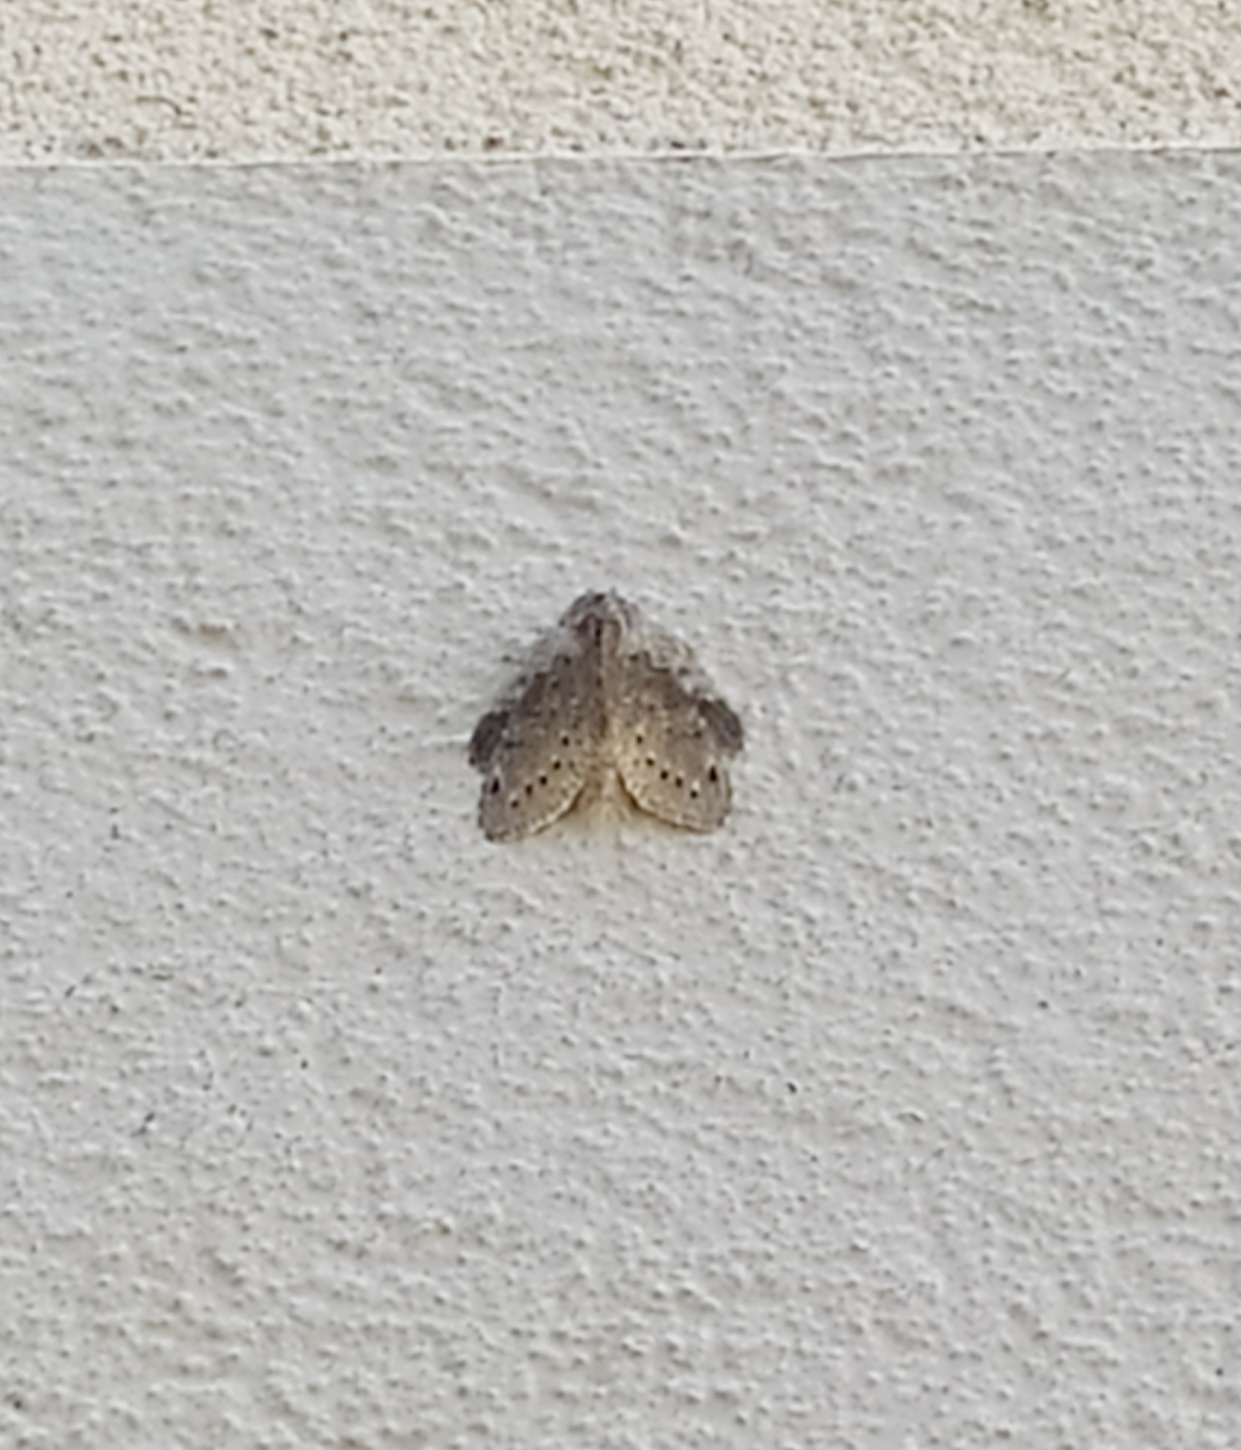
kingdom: Animalia
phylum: Arthropoda
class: Insecta
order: Lepidoptera
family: Notodontidae
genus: Stauropus
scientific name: Stauropus fagi
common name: Lobster moth
